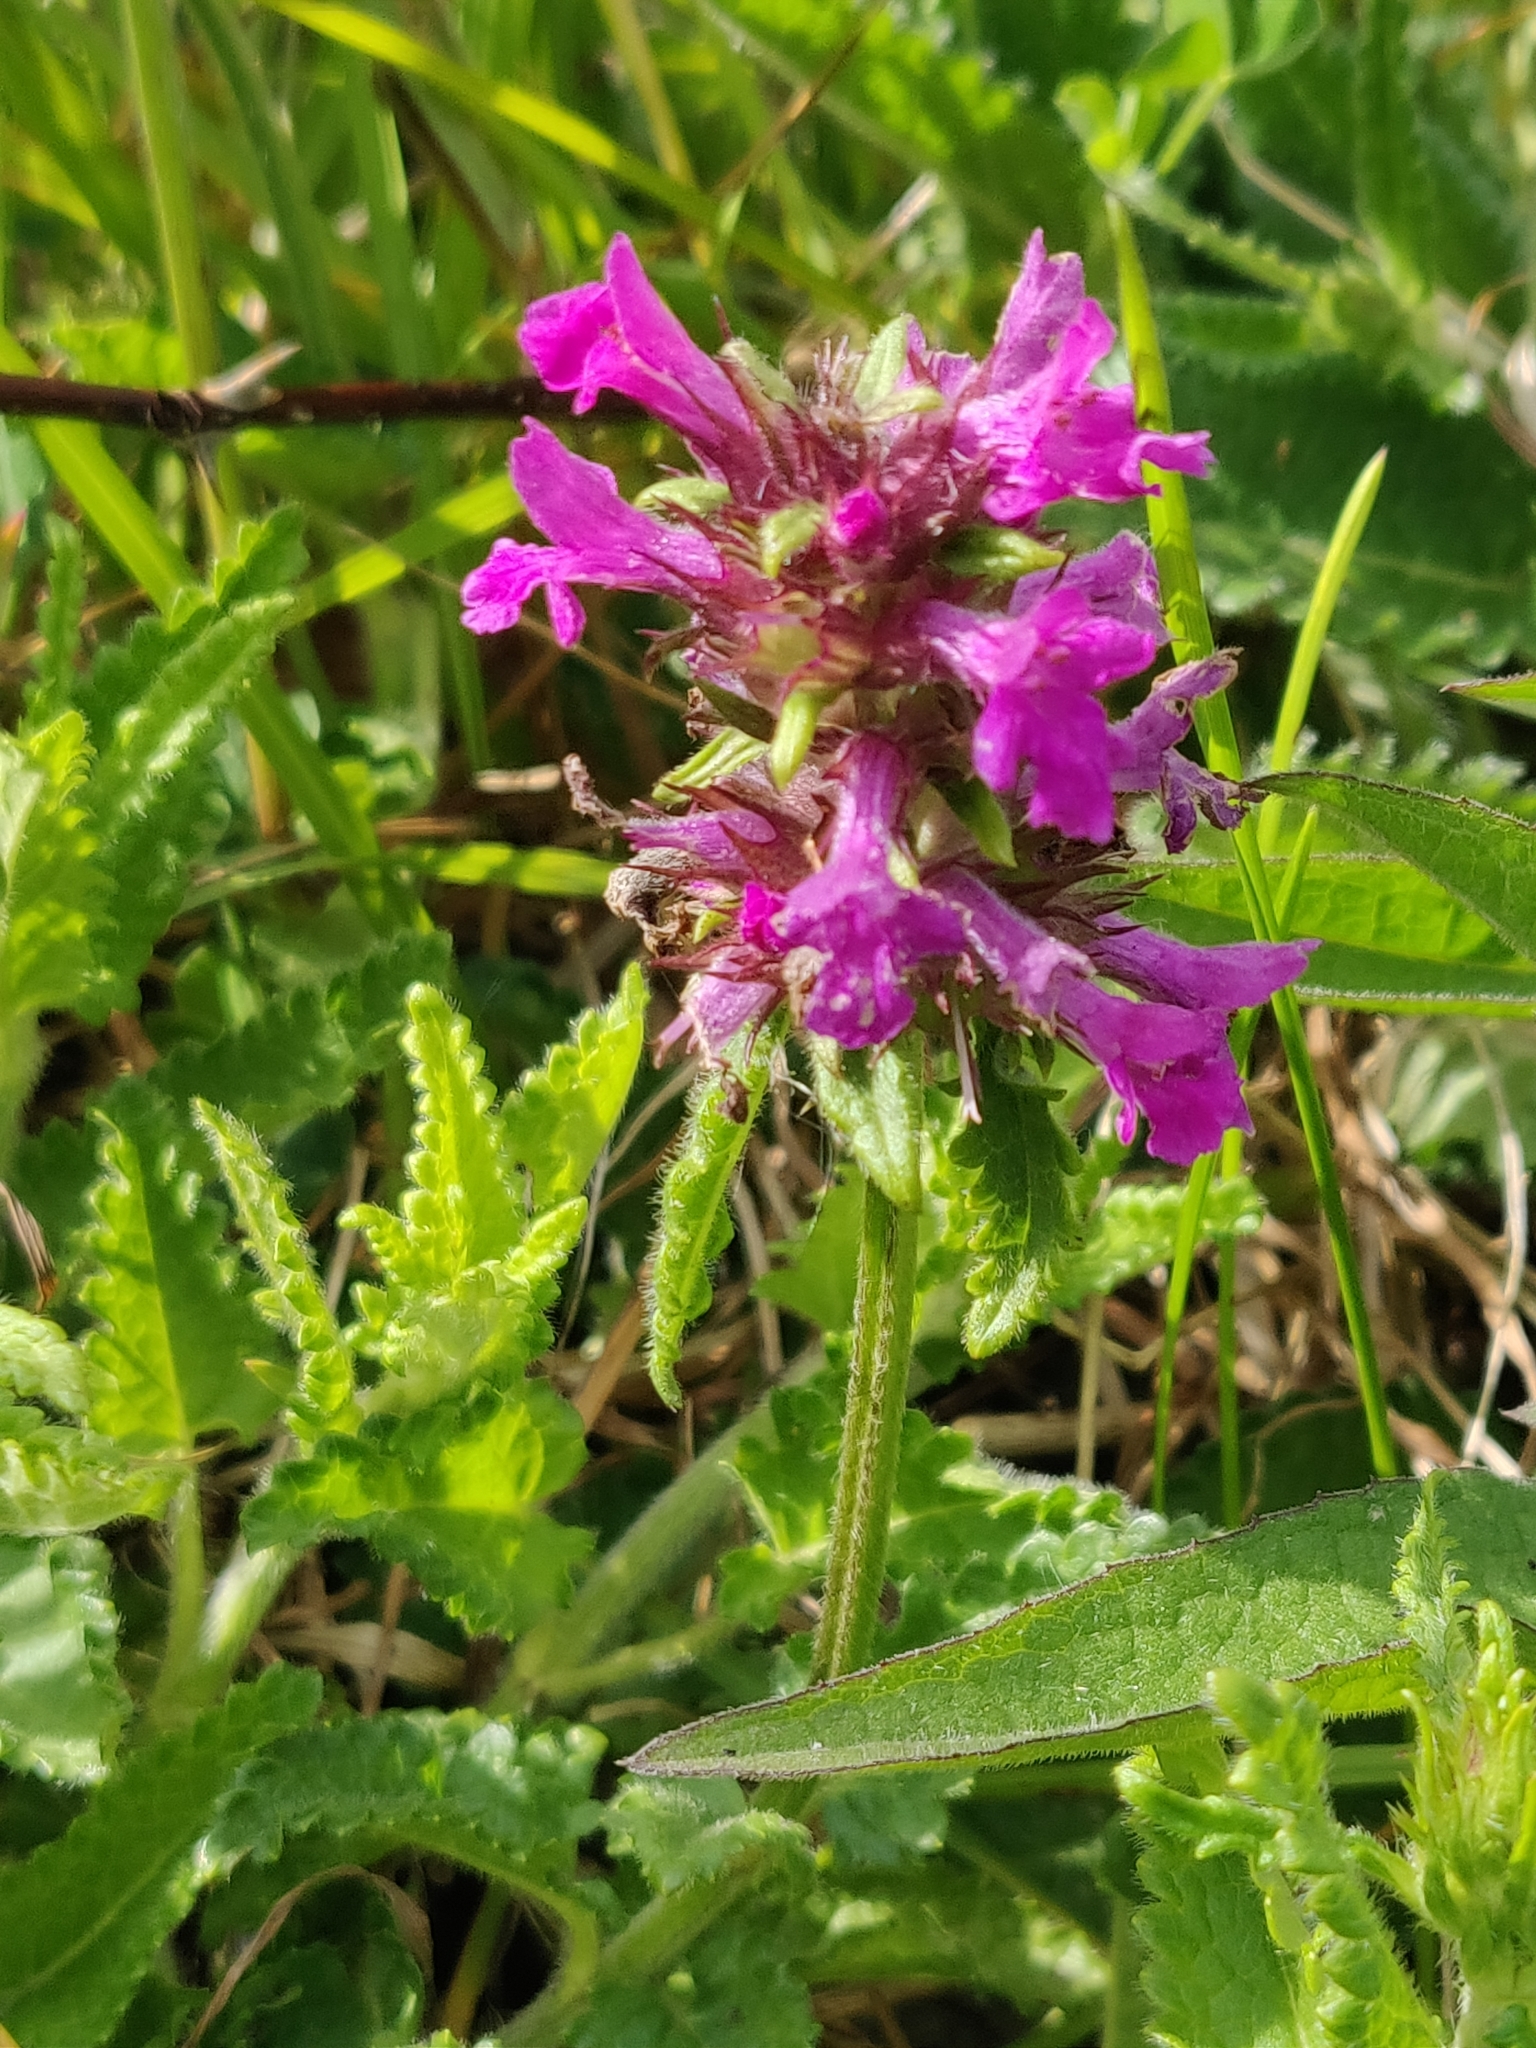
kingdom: Plantae
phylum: Tracheophyta
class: Magnoliopsida
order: Lamiales
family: Lamiaceae
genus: Betonica
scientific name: Betonica officinalis
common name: Bishop's-wort
